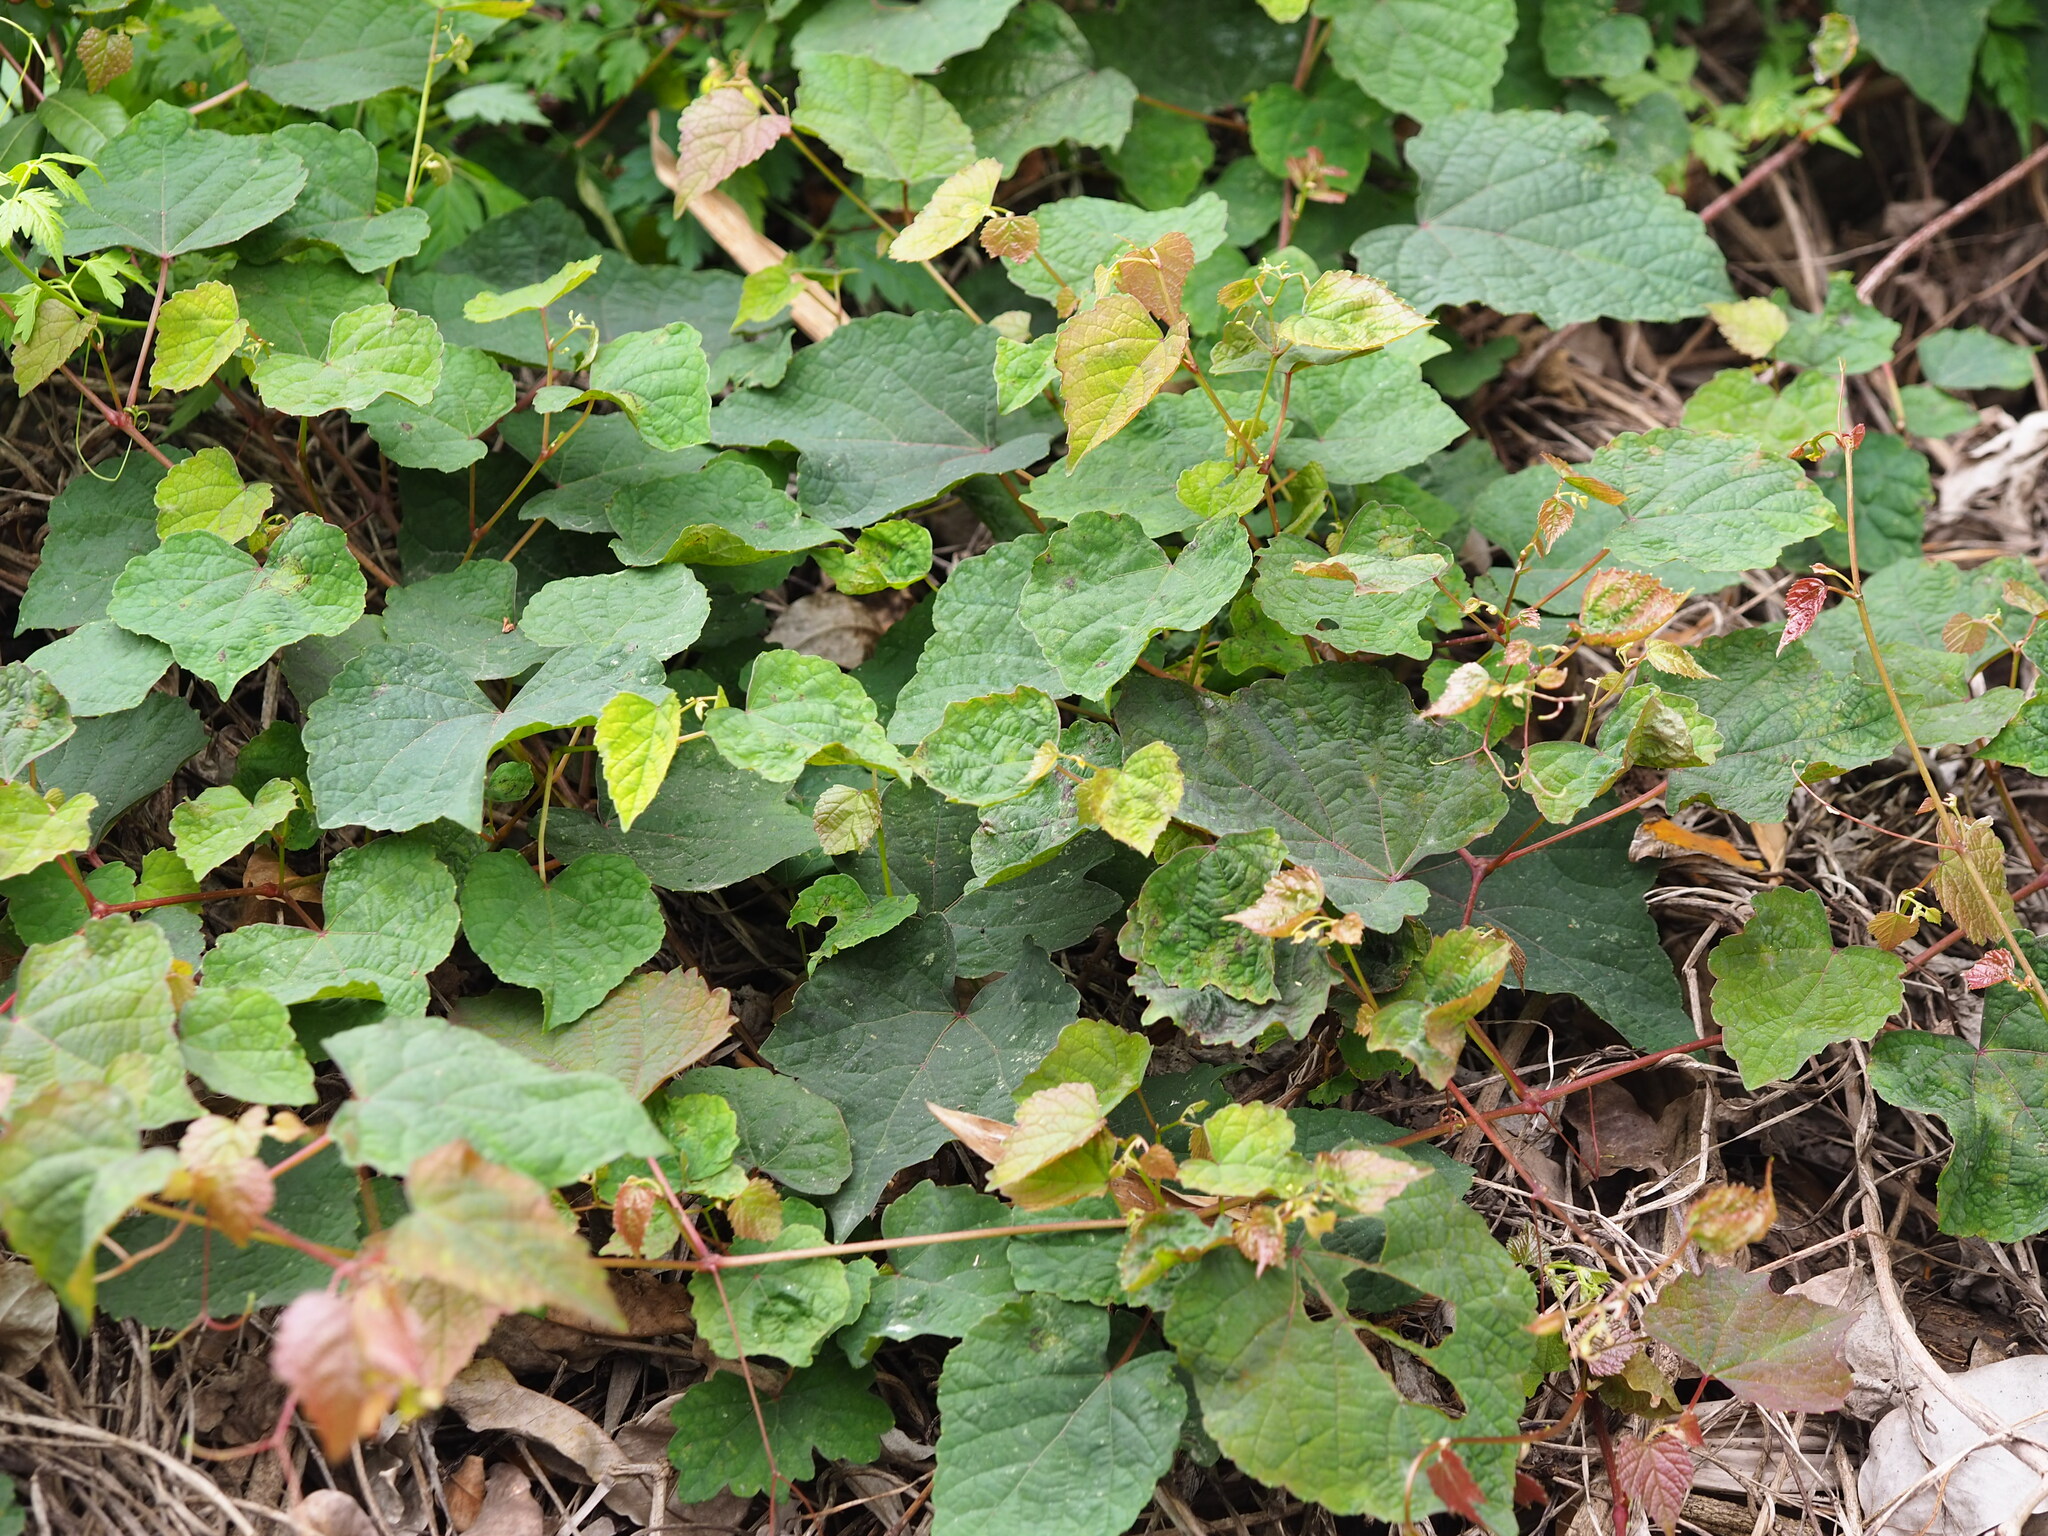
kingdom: Plantae
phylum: Tracheophyta
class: Magnoliopsida
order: Vitales
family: Vitaceae
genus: Ampelopsis
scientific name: Ampelopsis glandulosa
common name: Amur peppervine
